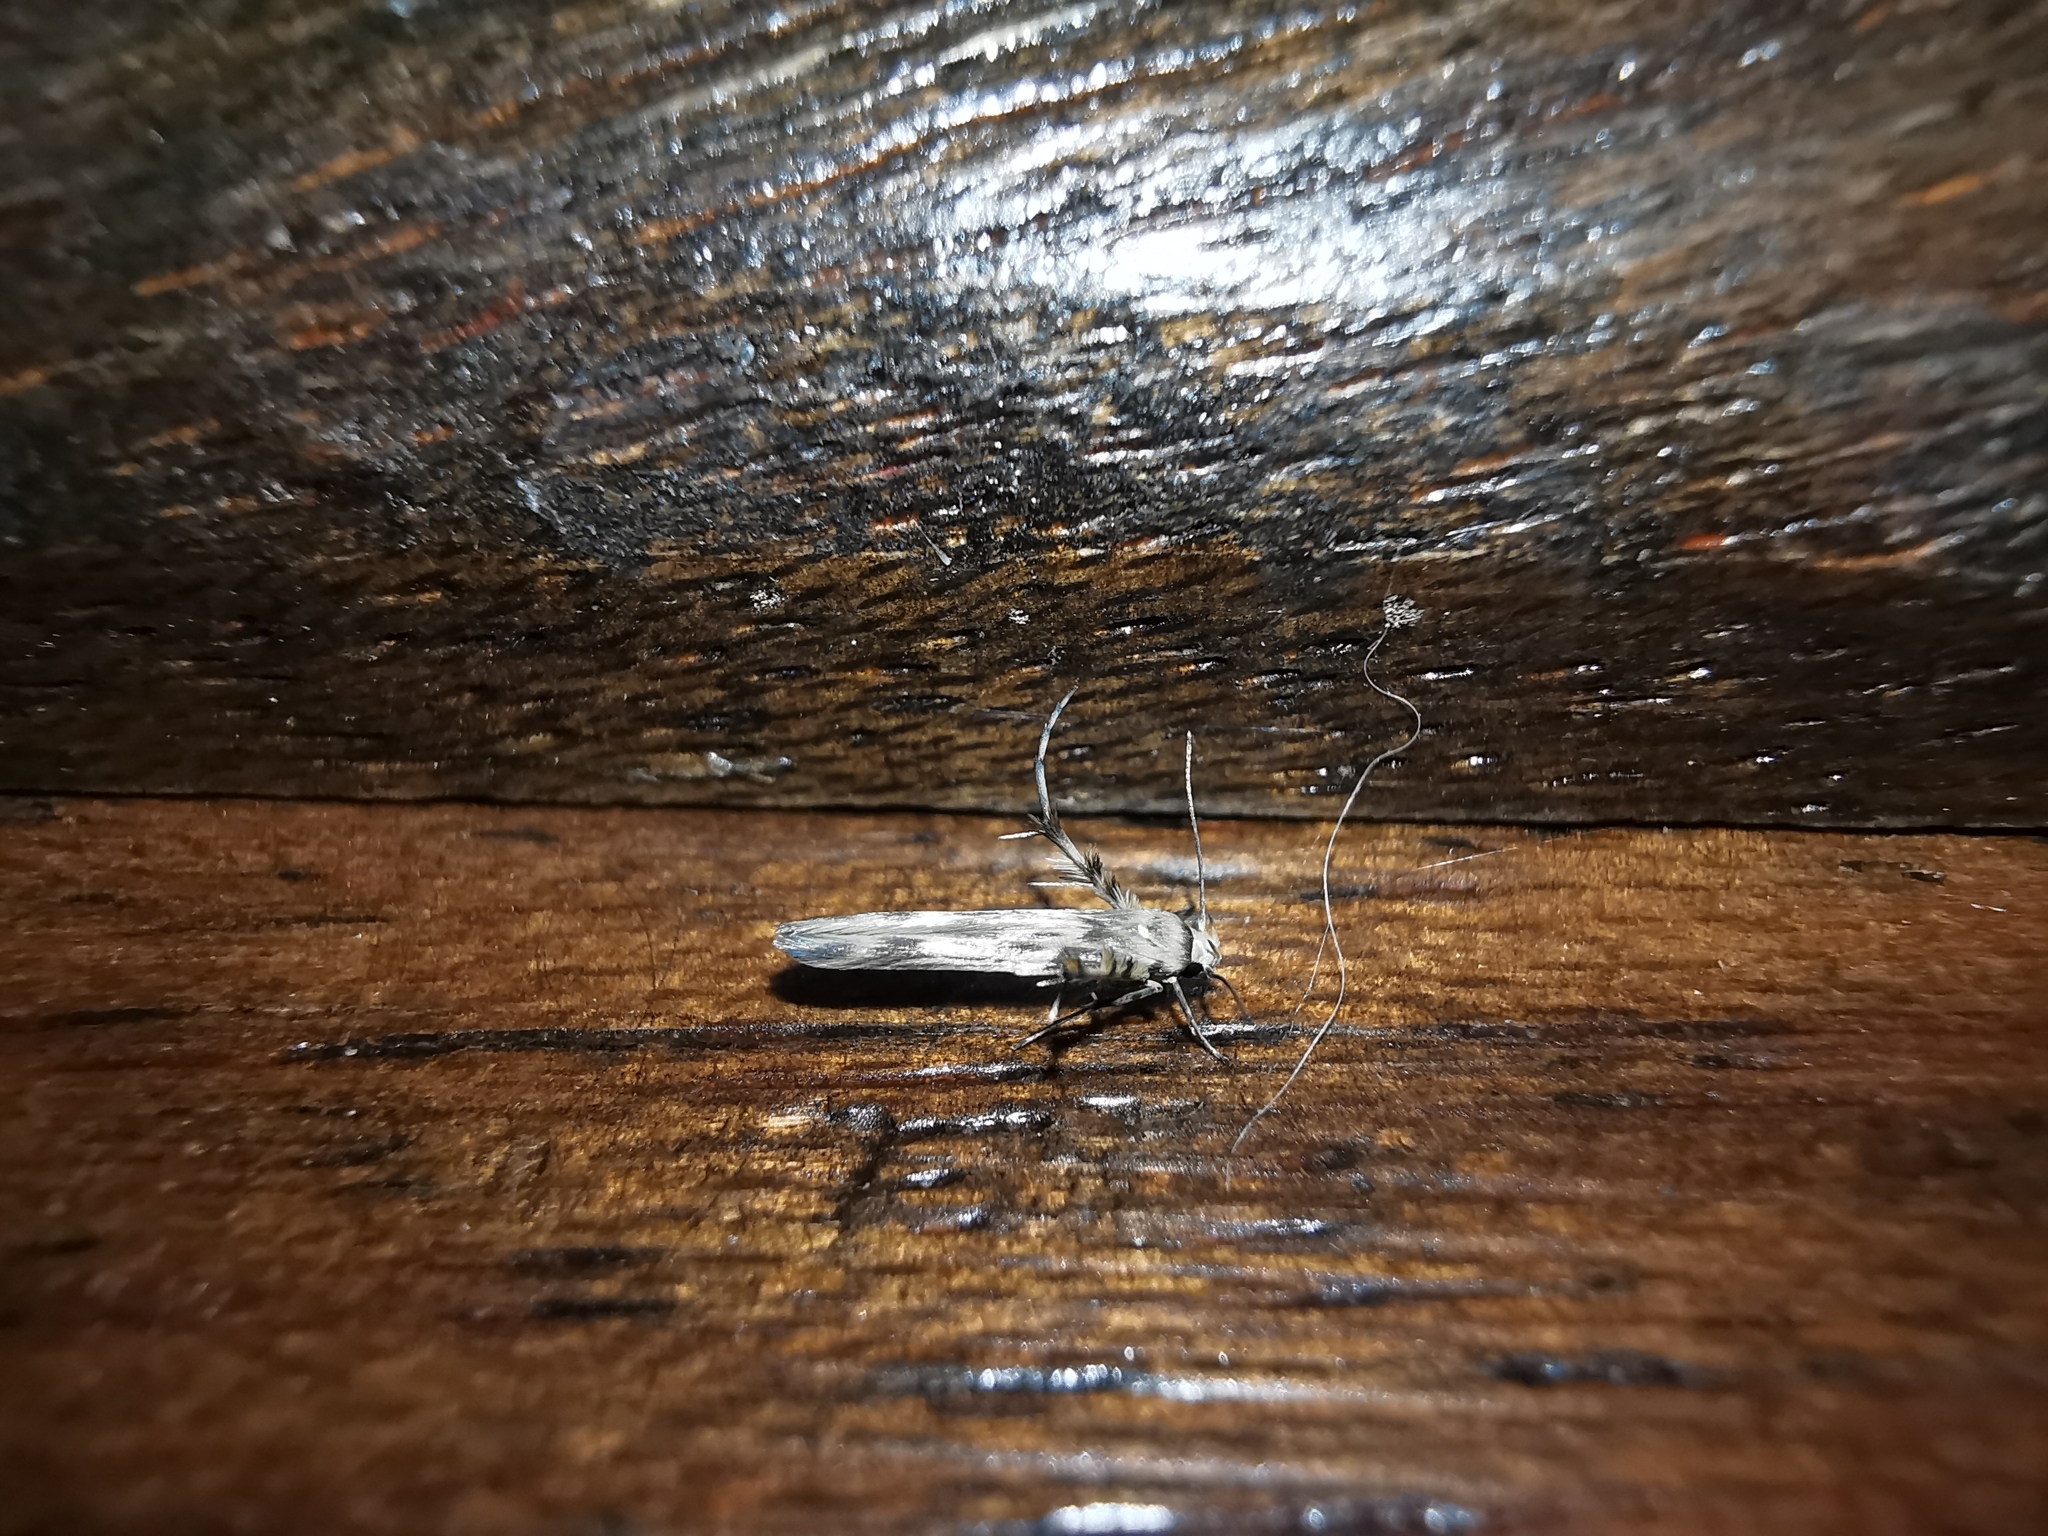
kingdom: Animalia
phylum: Arthropoda
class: Insecta
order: Lepidoptera
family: Gelechiidae
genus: Palumbina
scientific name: Palumbina guerinii
